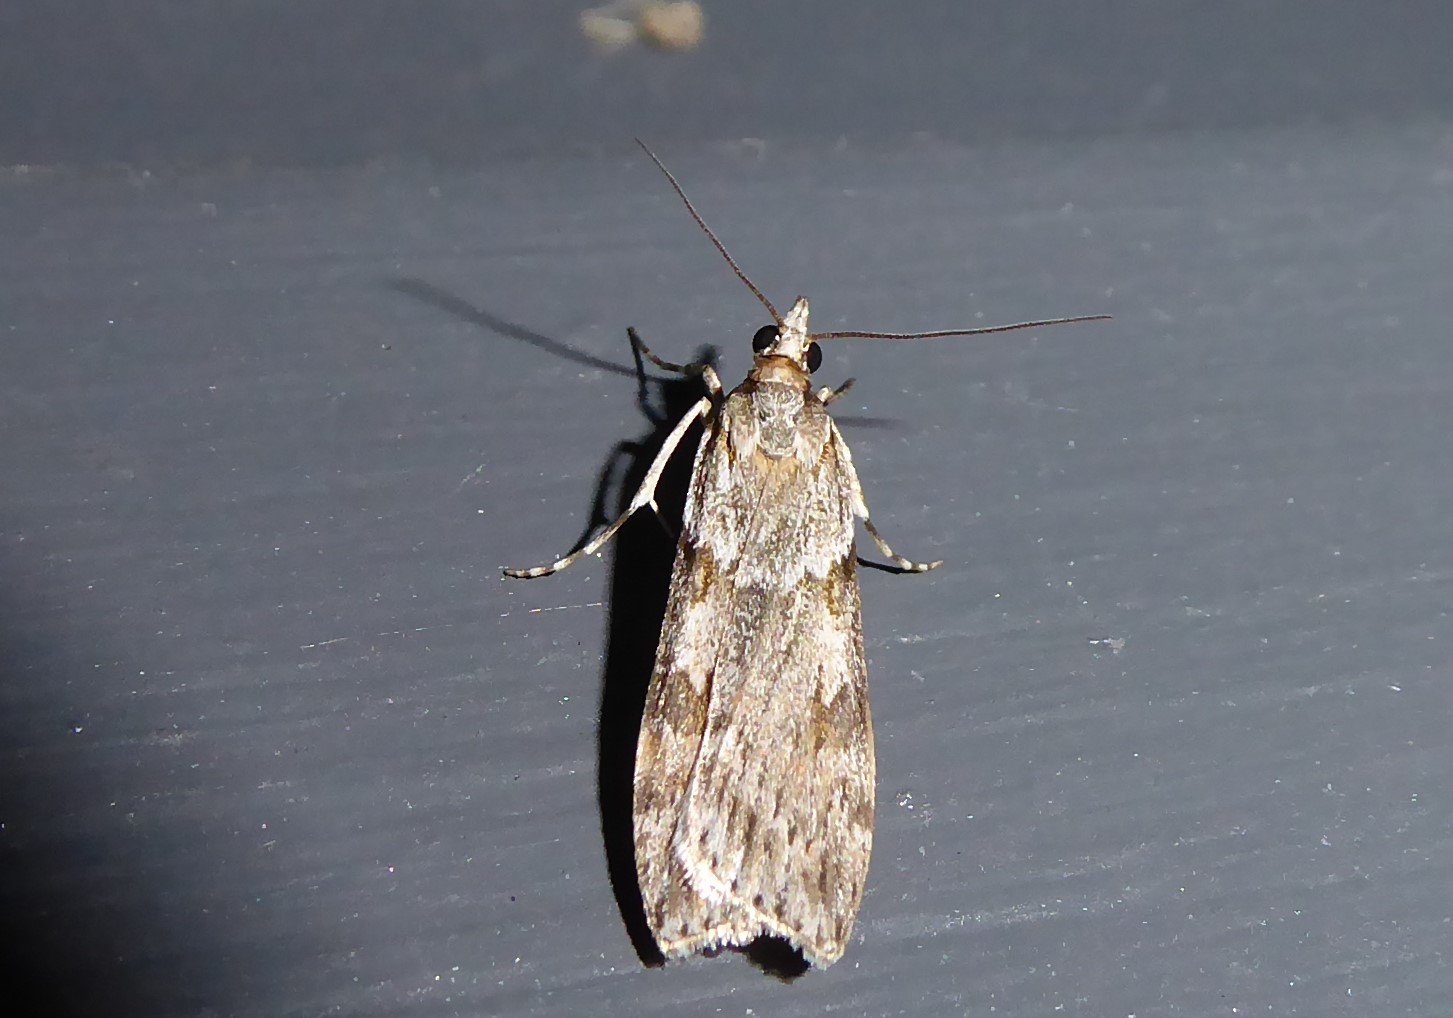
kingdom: Animalia
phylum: Arthropoda
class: Insecta
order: Lepidoptera
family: Crambidae
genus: Scoparia
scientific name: Scoparia halopis
